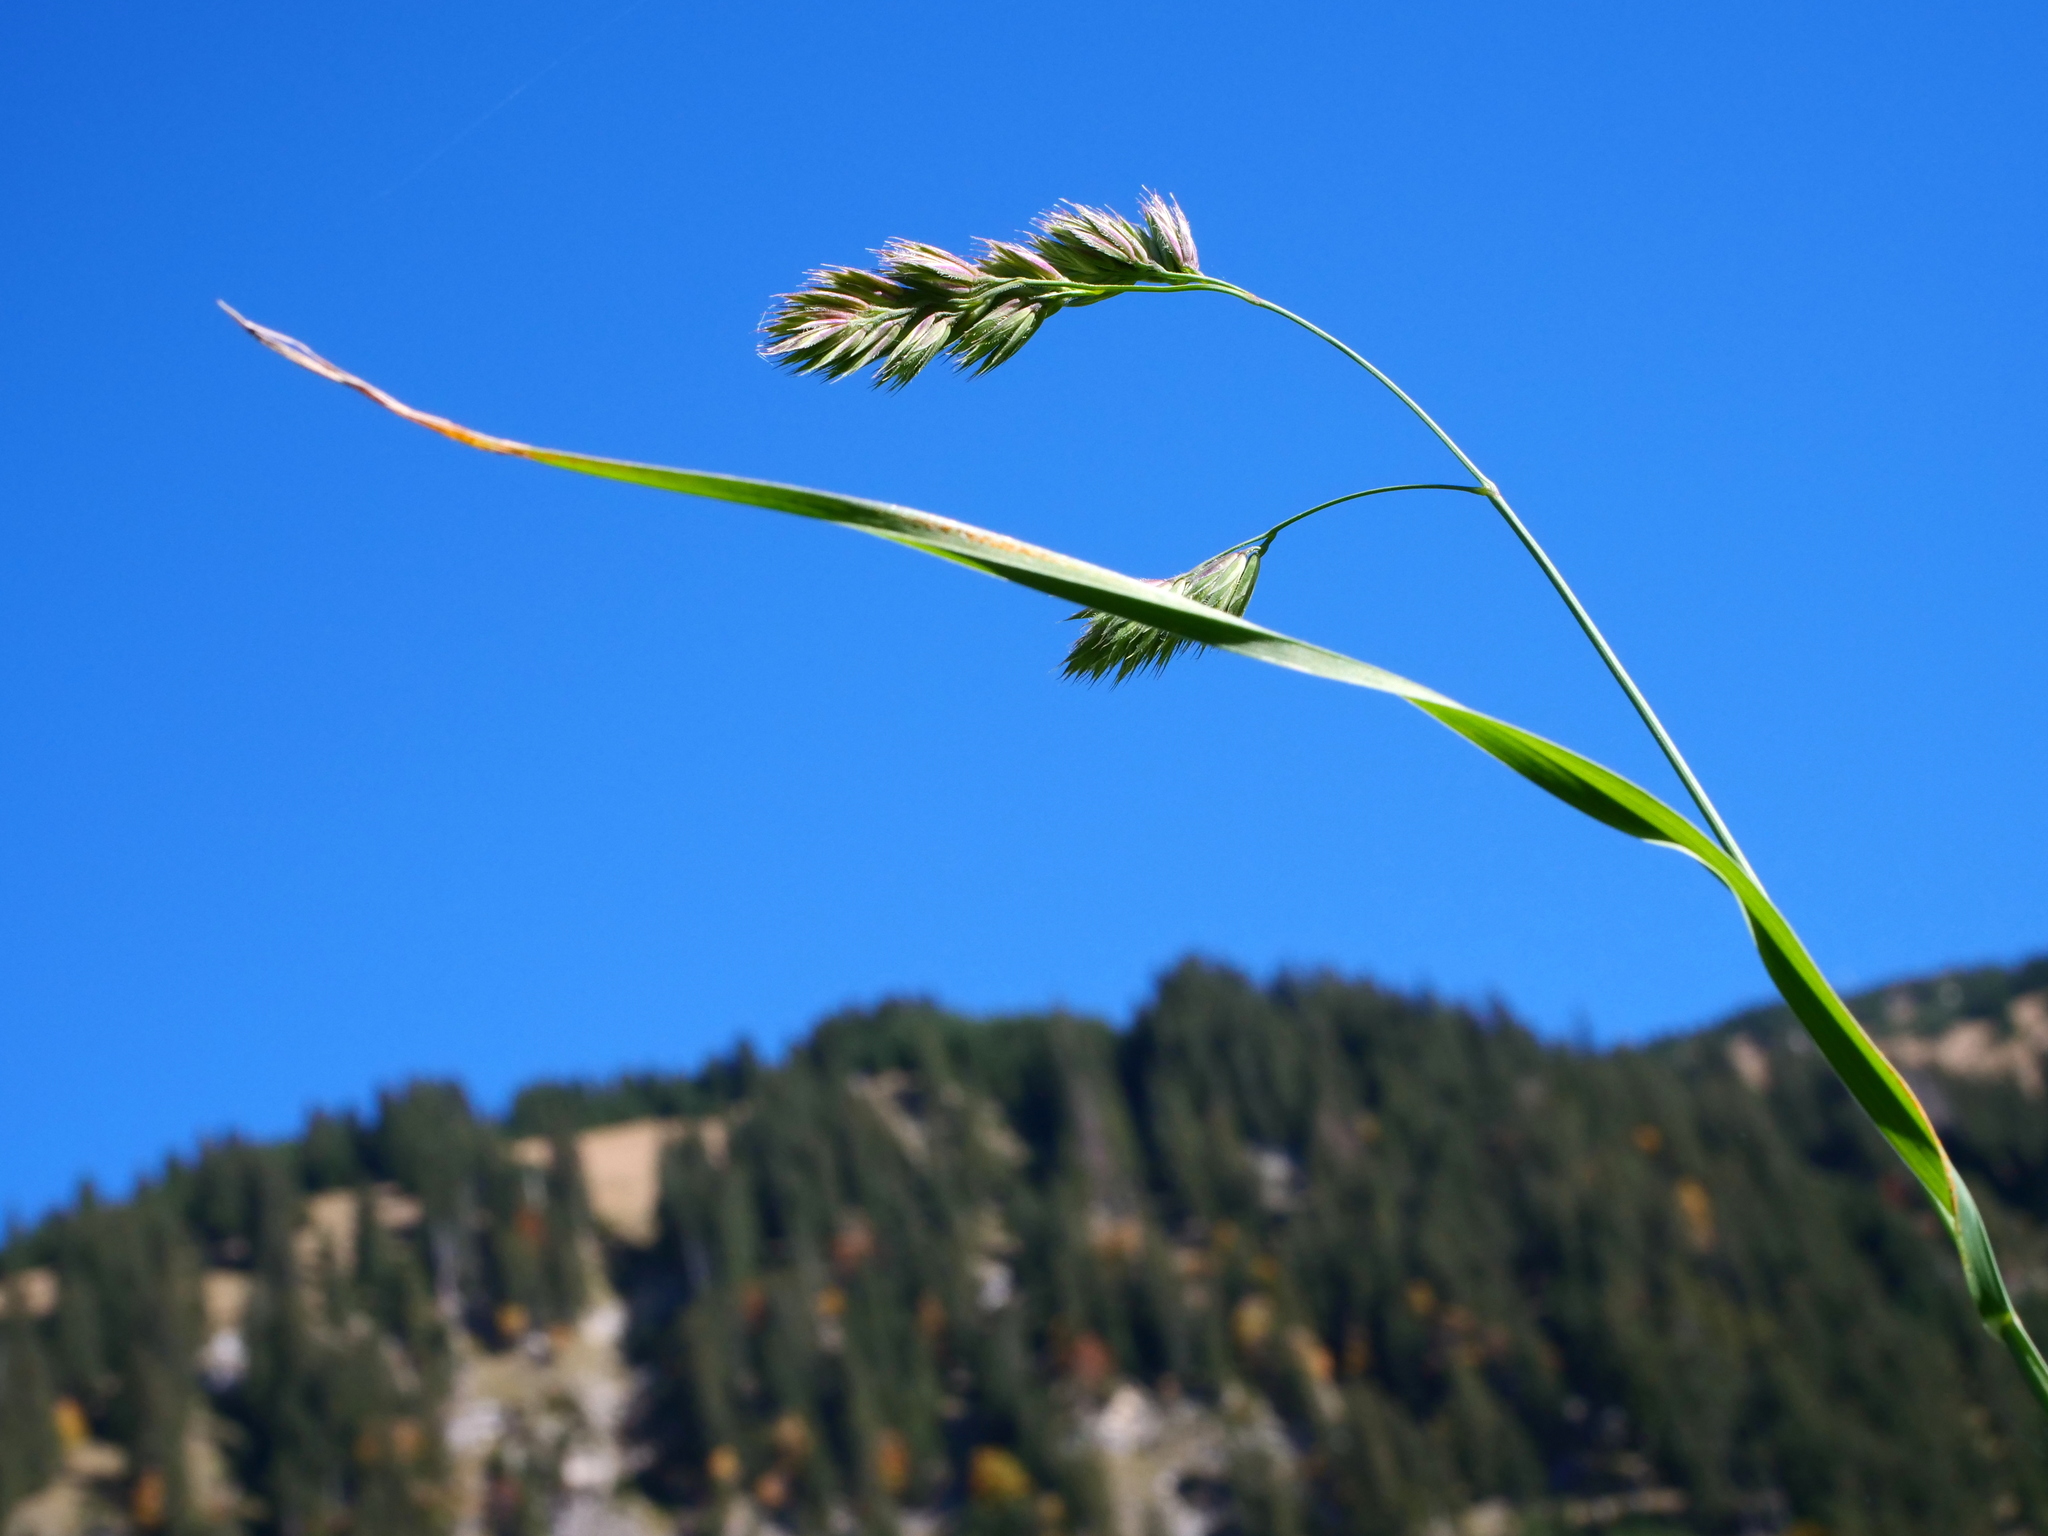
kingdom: Plantae
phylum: Tracheophyta
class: Liliopsida
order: Poales
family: Poaceae
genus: Dactylis
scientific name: Dactylis glomerata
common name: Orchardgrass
